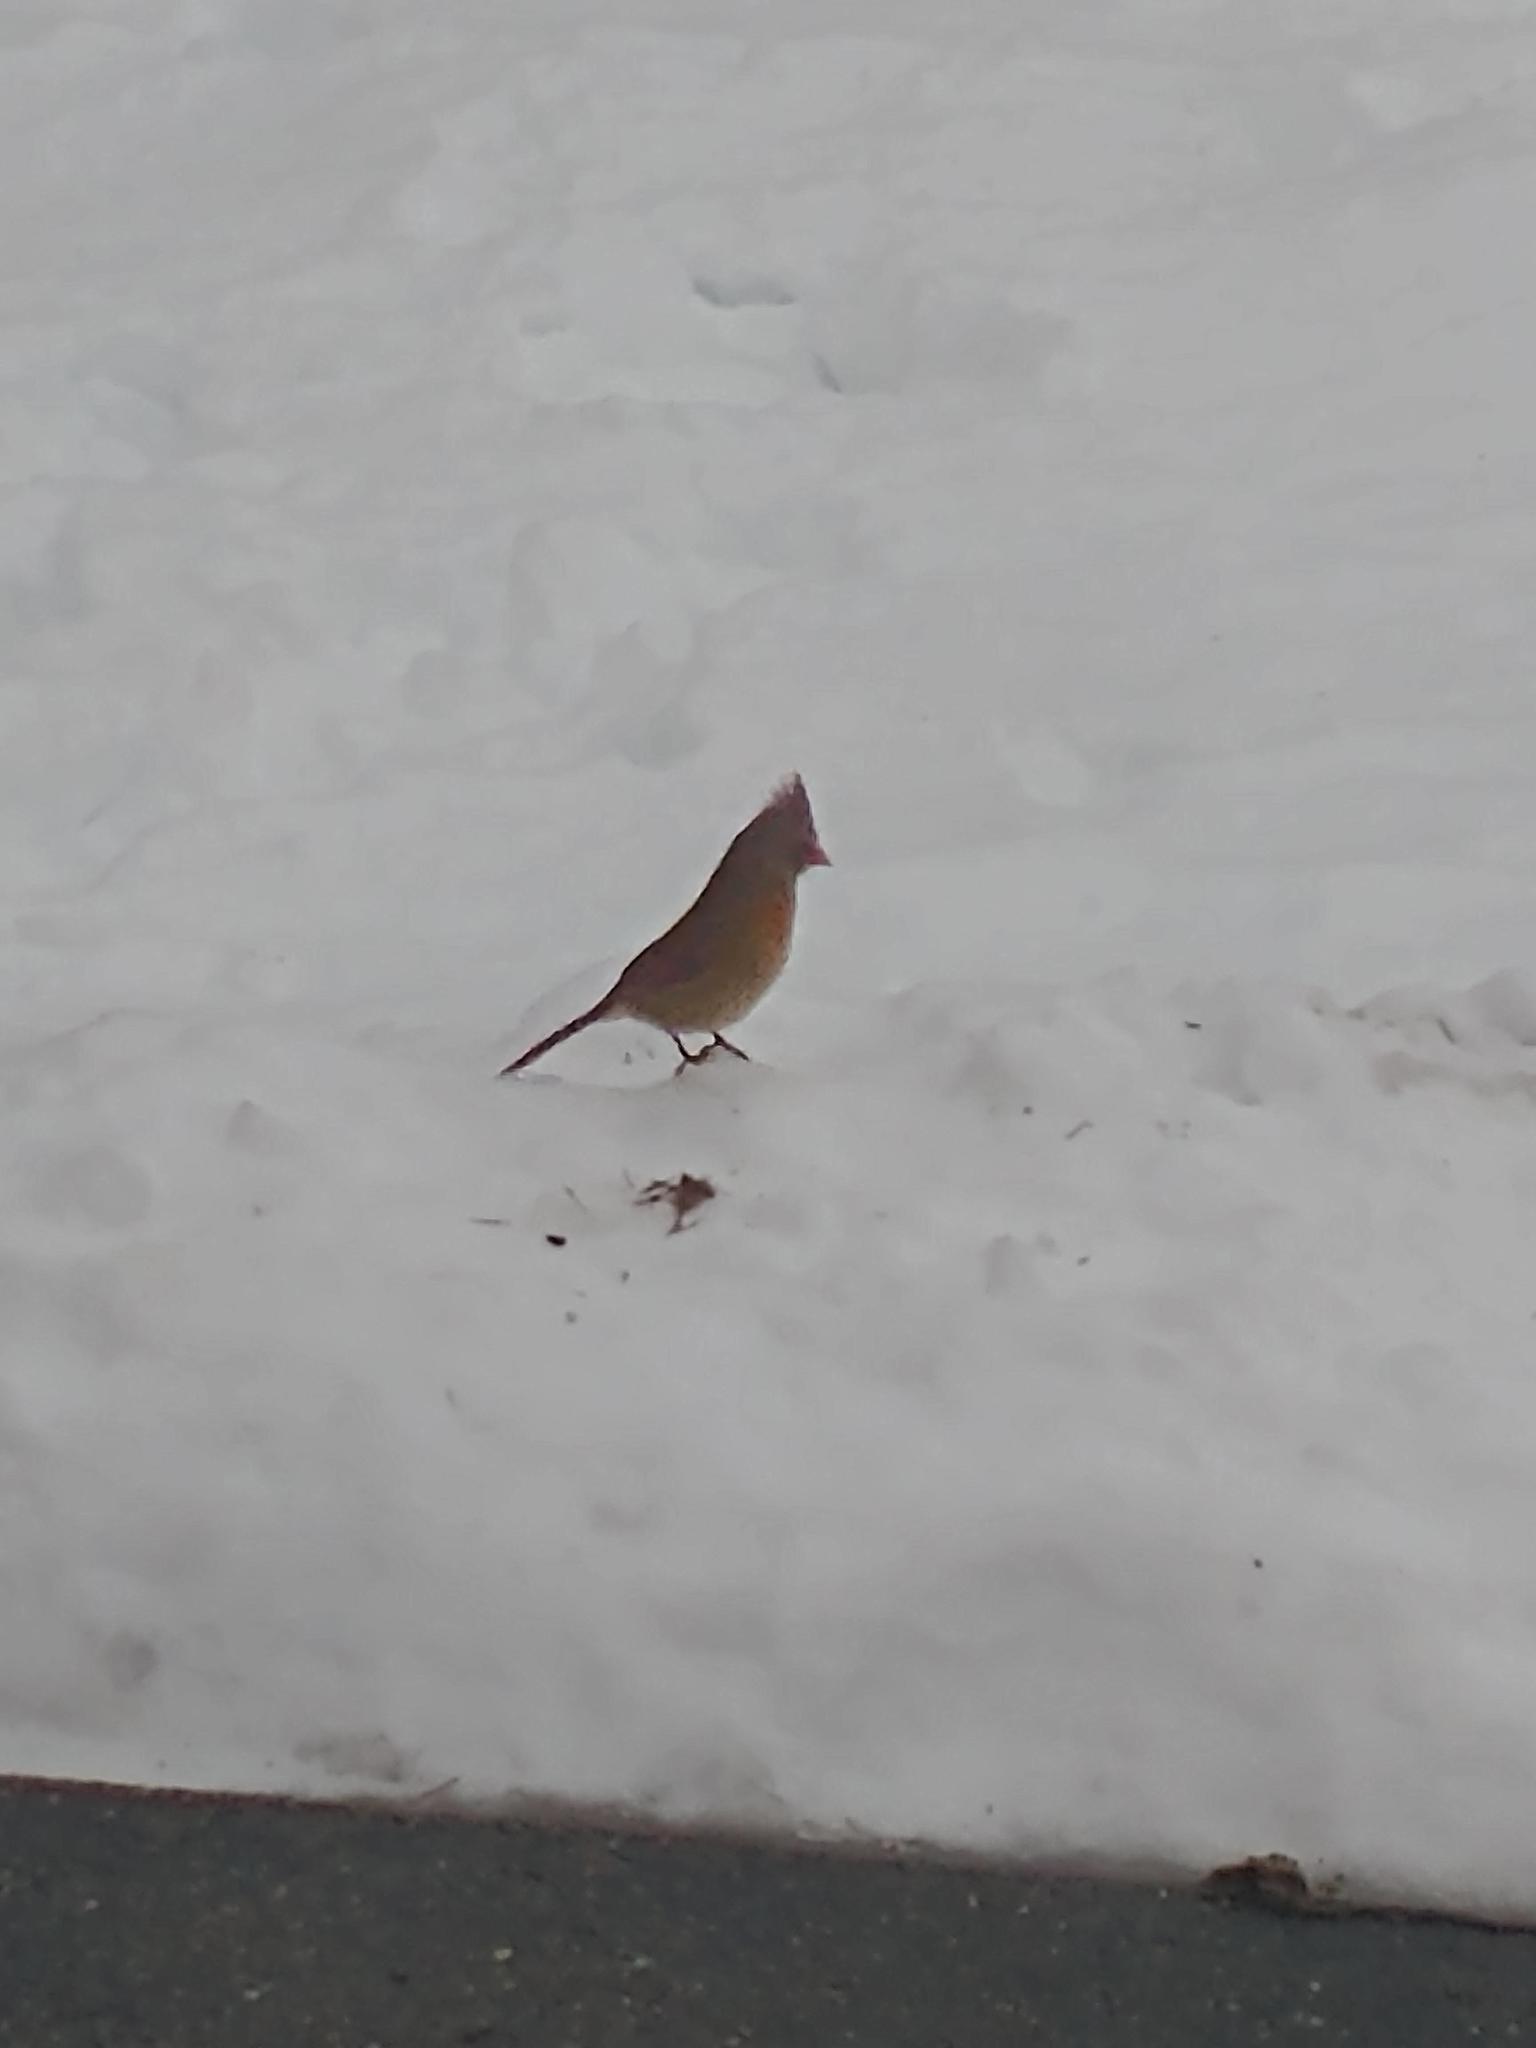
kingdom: Animalia
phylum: Chordata
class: Aves
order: Passeriformes
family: Cardinalidae
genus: Cardinalis
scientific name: Cardinalis cardinalis
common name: Northern cardinal
